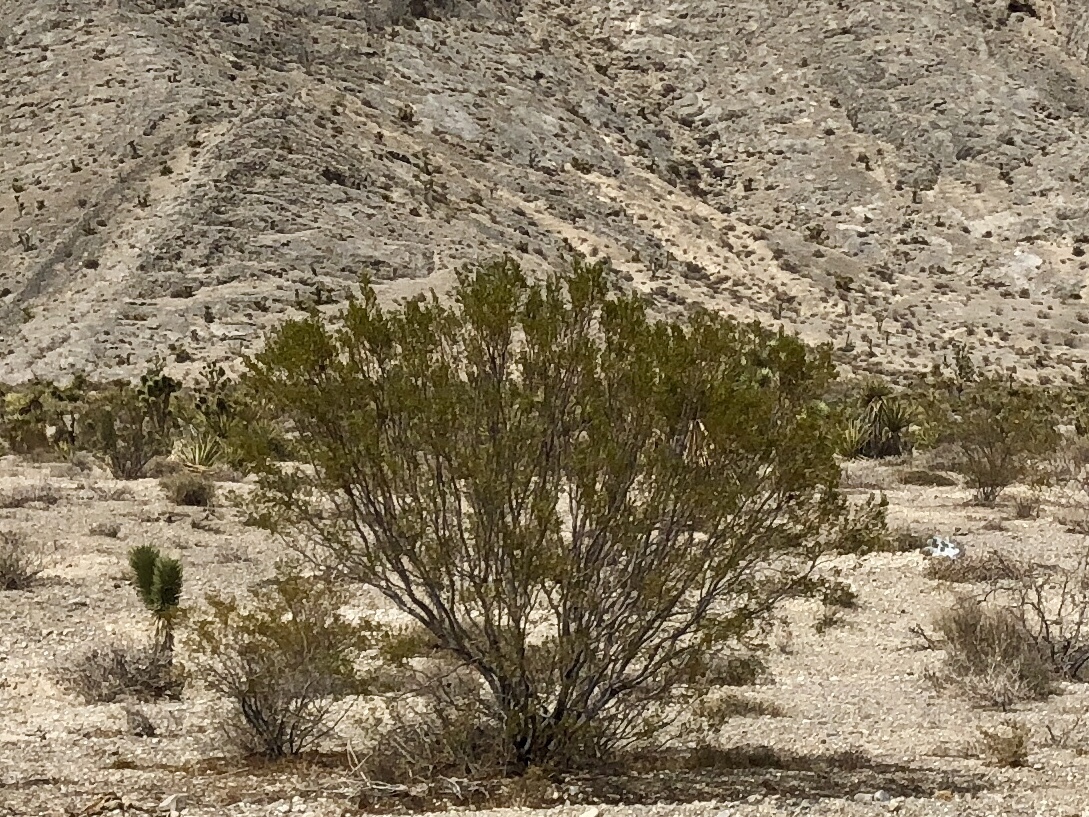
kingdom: Plantae
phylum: Tracheophyta
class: Magnoliopsida
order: Zygophyllales
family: Zygophyllaceae
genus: Larrea
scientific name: Larrea tridentata
